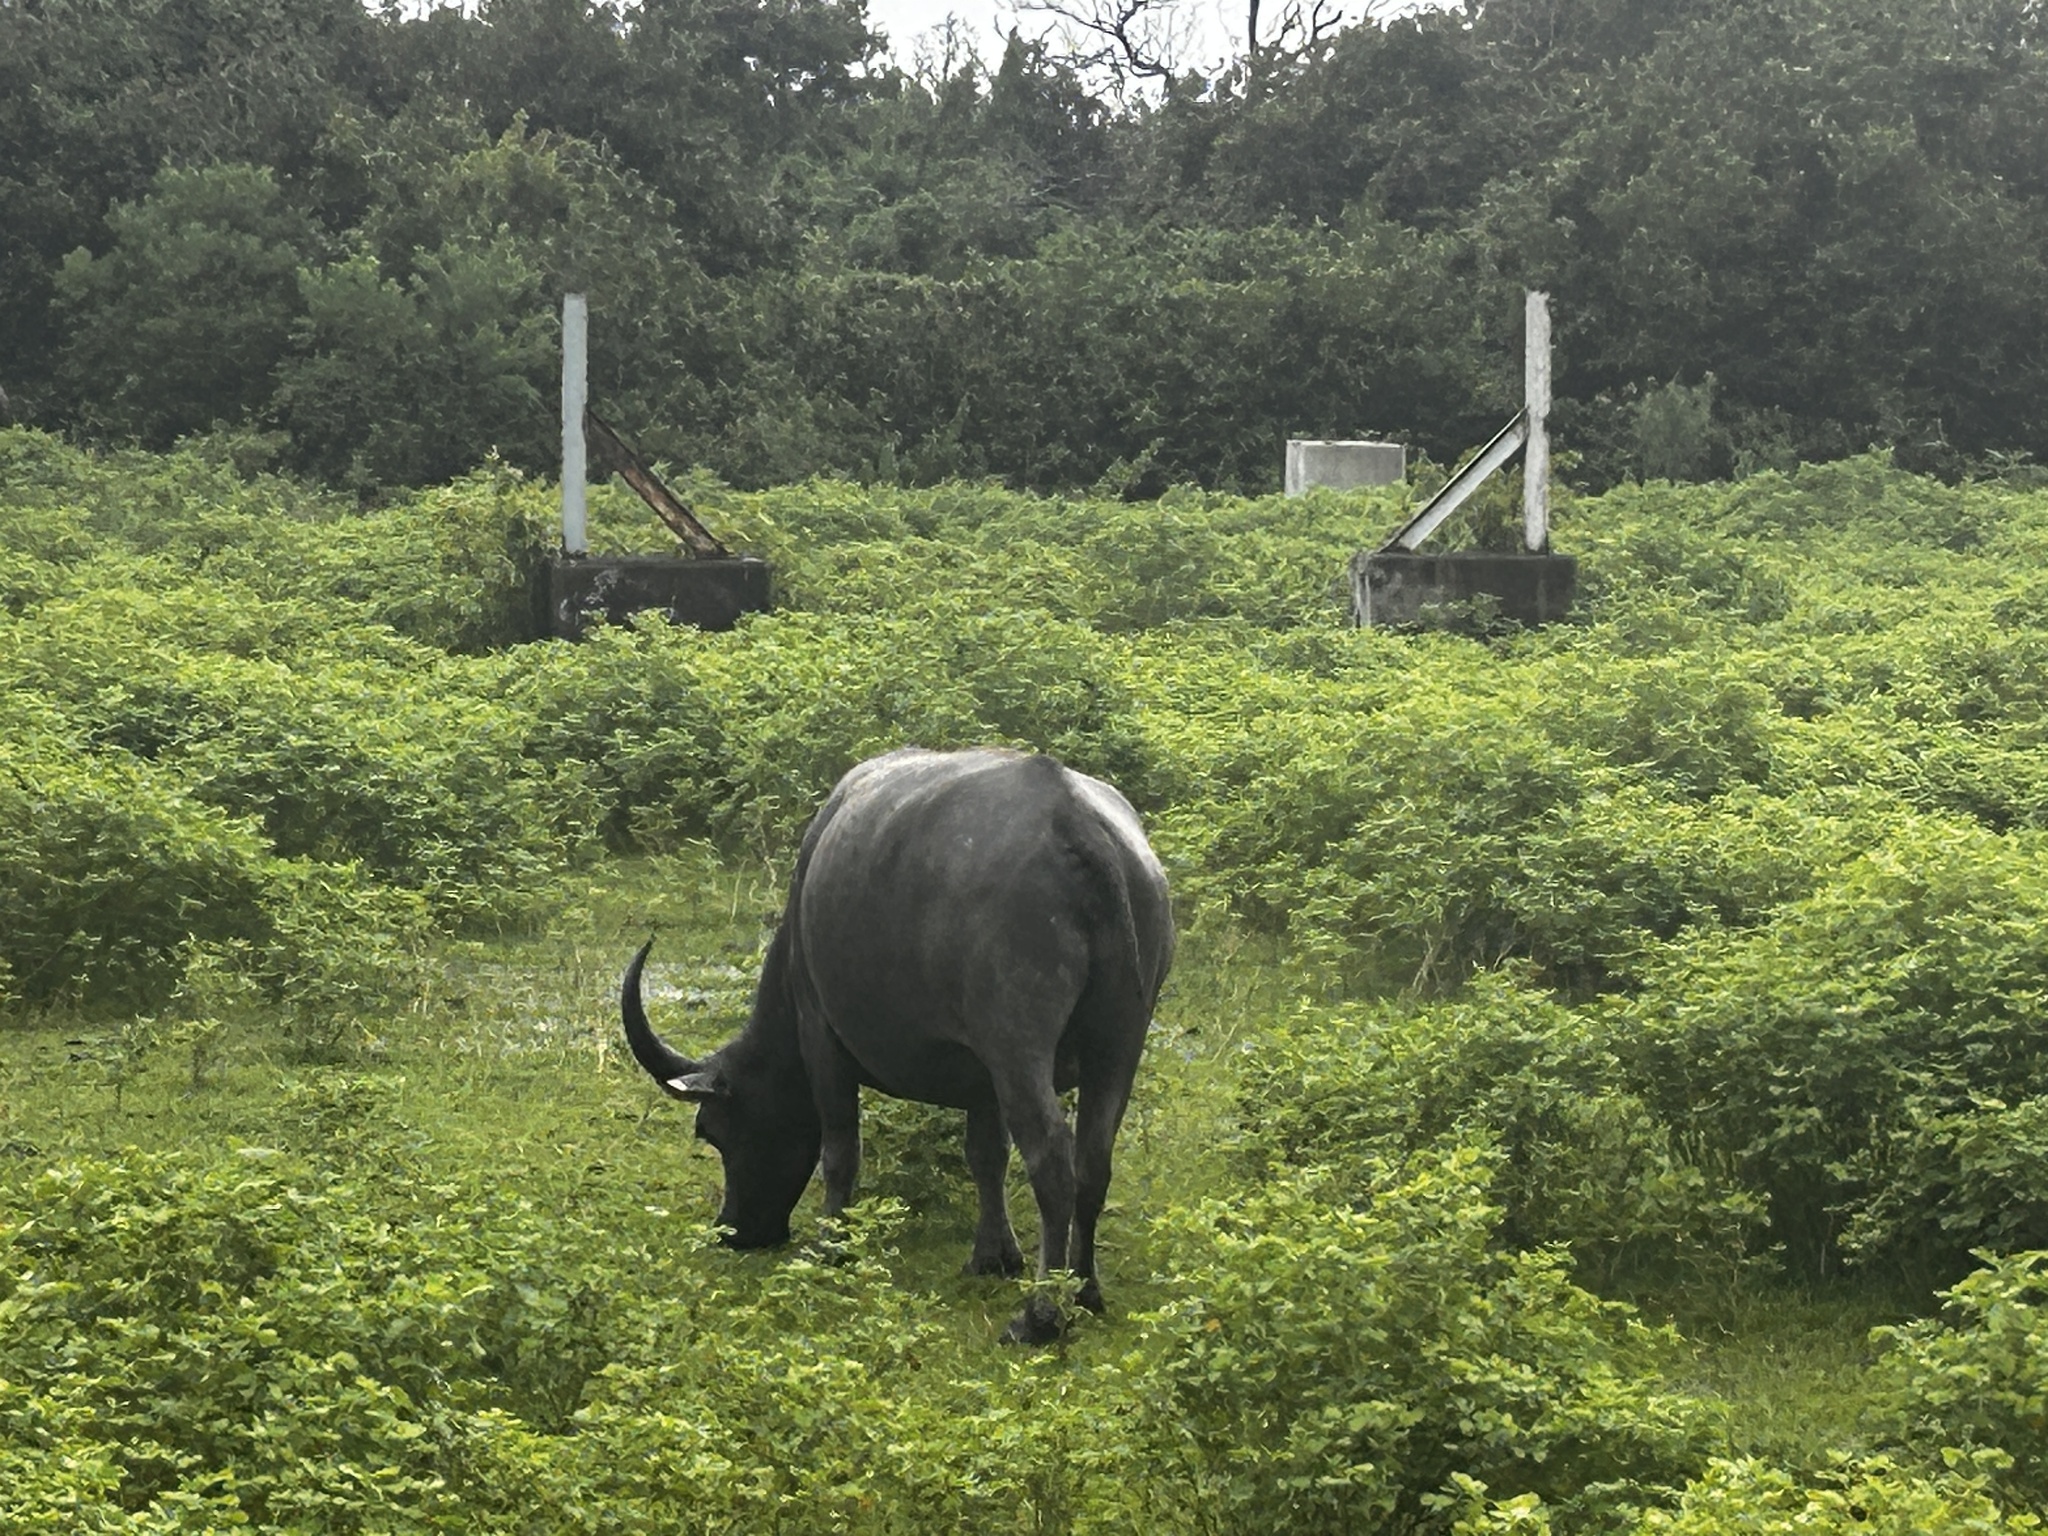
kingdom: Animalia
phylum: Chordata
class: Mammalia
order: Artiodactyla
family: Bovidae
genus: Bubalus
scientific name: Bubalus bubalis
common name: Water buffalo
